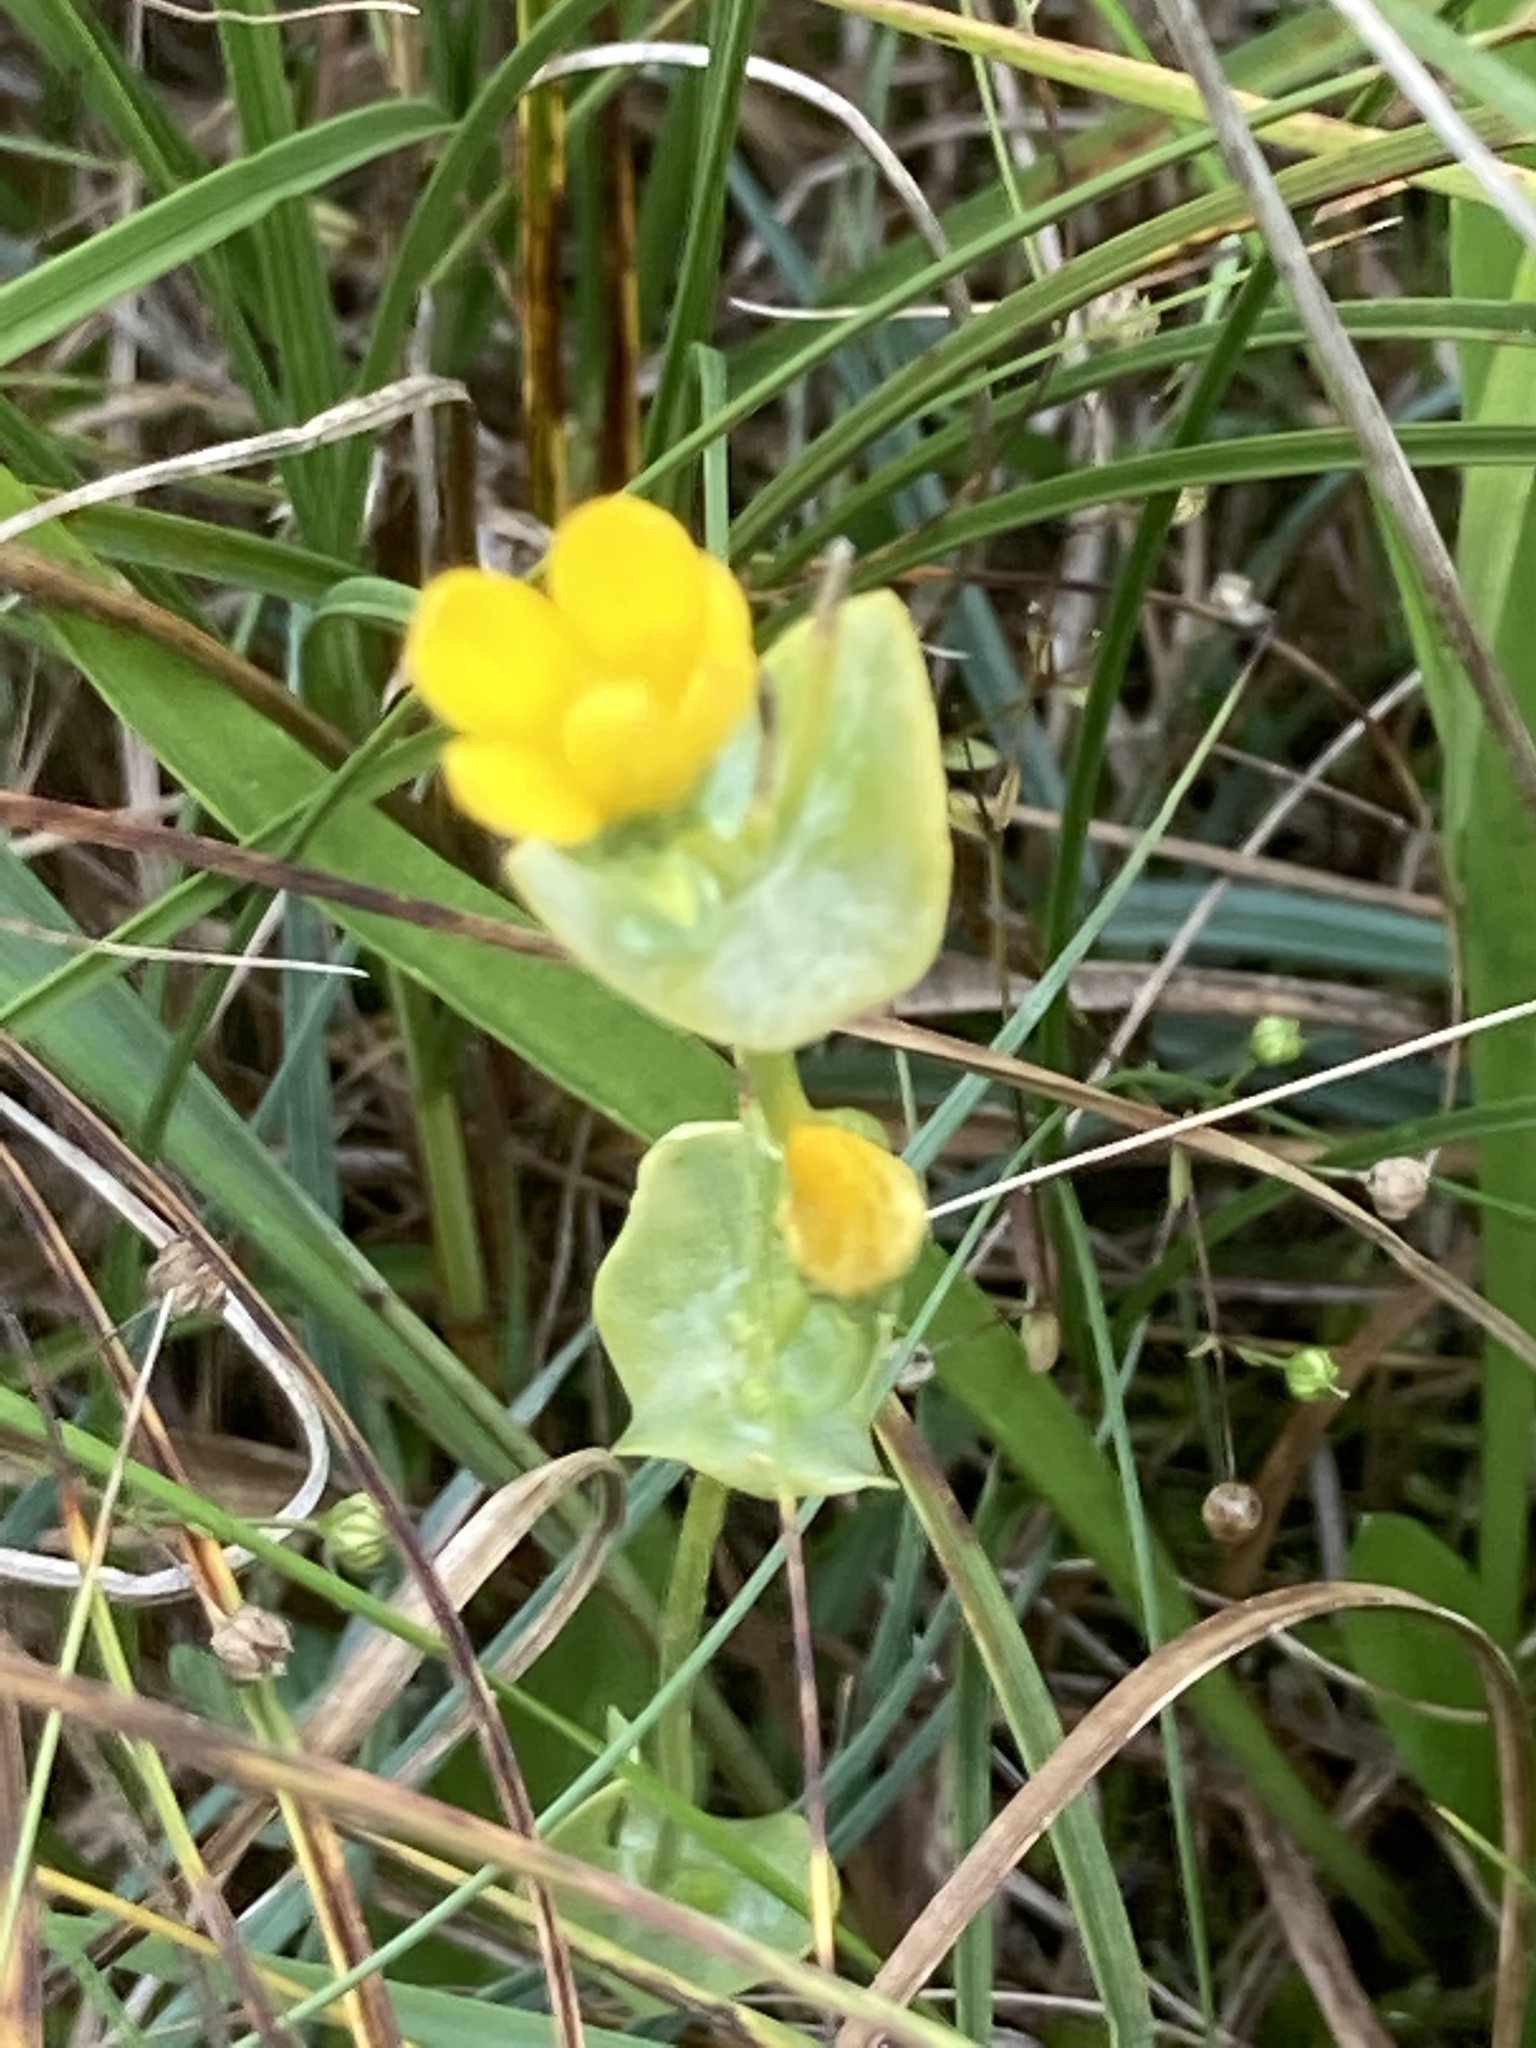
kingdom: Plantae
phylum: Tracheophyta
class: Magnoliopsida
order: Gentianales
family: Gentianaceae
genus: Blackstonia
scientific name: Blackstonia perfoliata
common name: Yellow-wort
